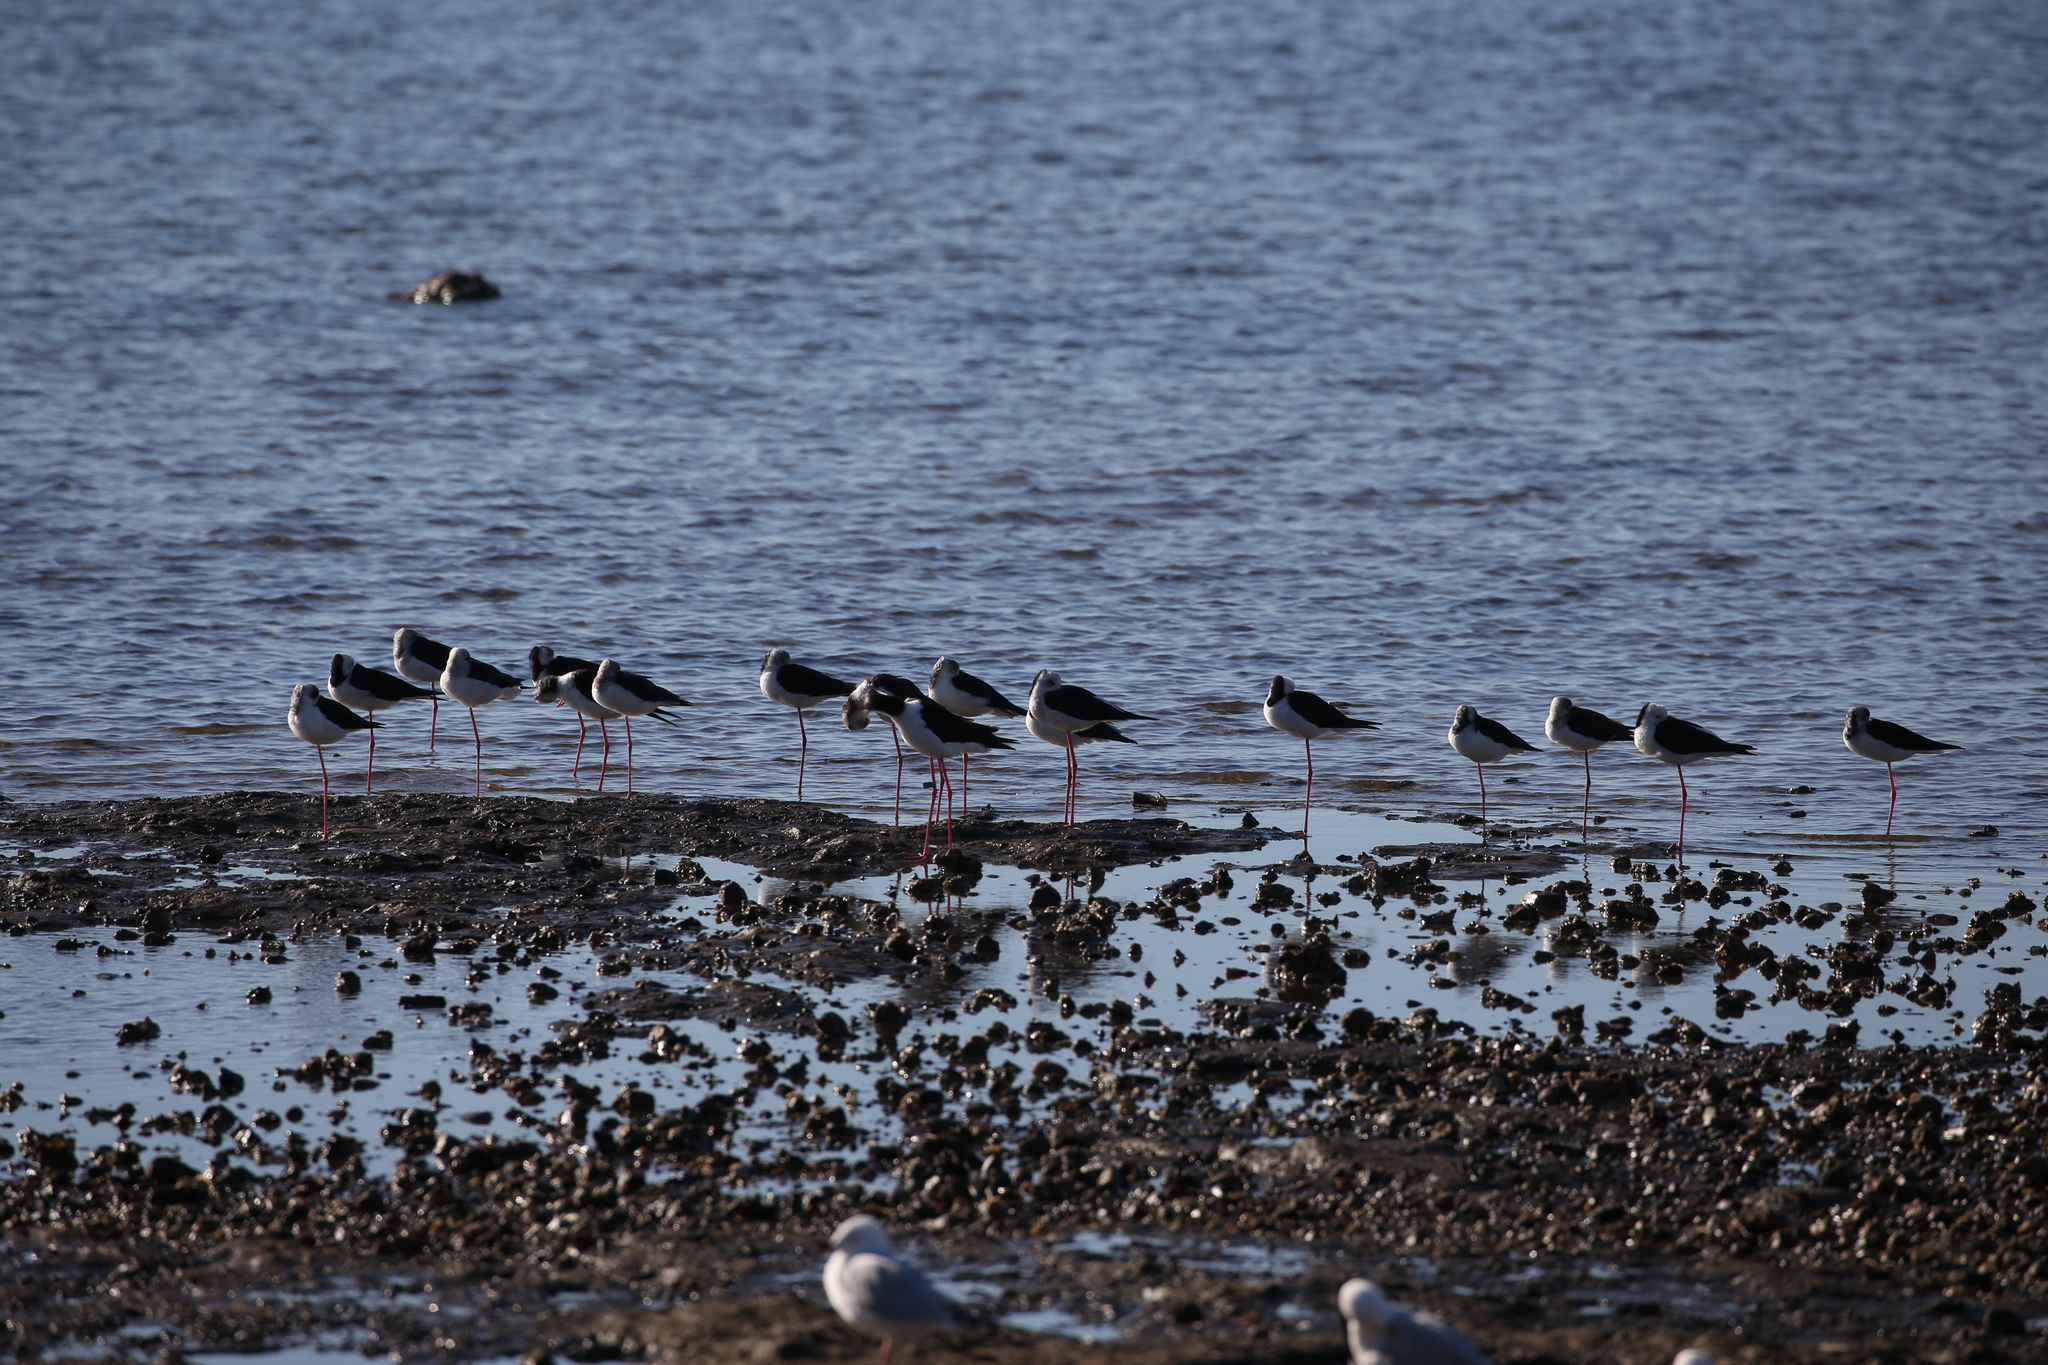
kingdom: Animalia
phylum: Chordata
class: Aves
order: Charadriiformes
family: Recurvirostridae
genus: Himantopus
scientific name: Himantopus leucocephalus
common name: White-headed stilt
